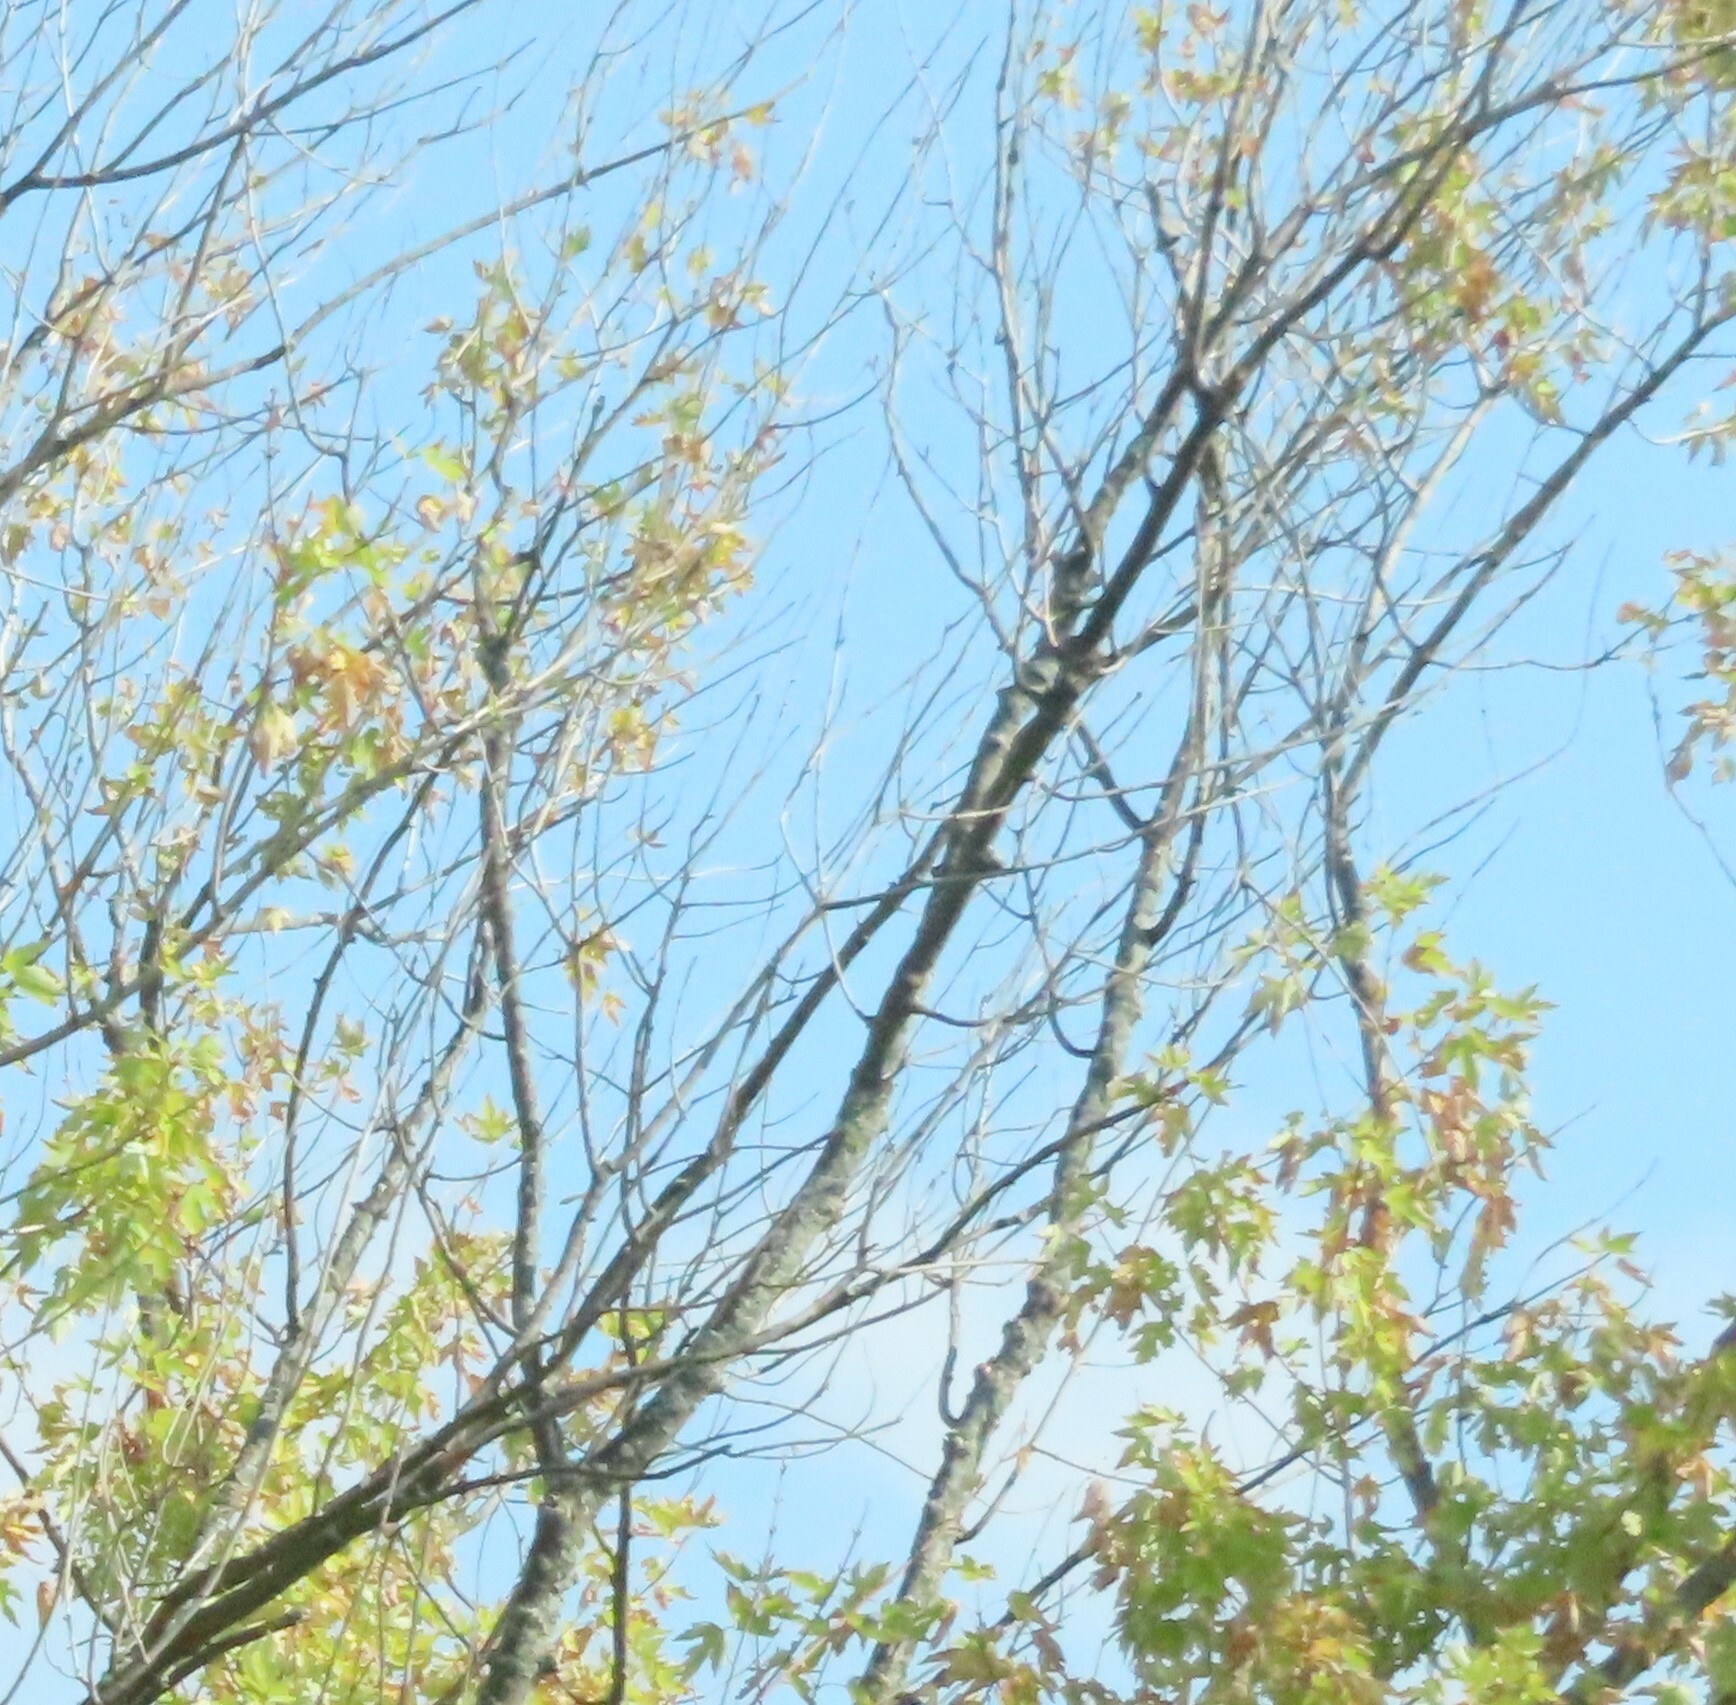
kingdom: Plantae
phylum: Tracheophyta
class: Magnoliopsida
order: Sapindales
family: Sapindaceae
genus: Acer
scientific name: Acer saccharinum
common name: Silver maple
